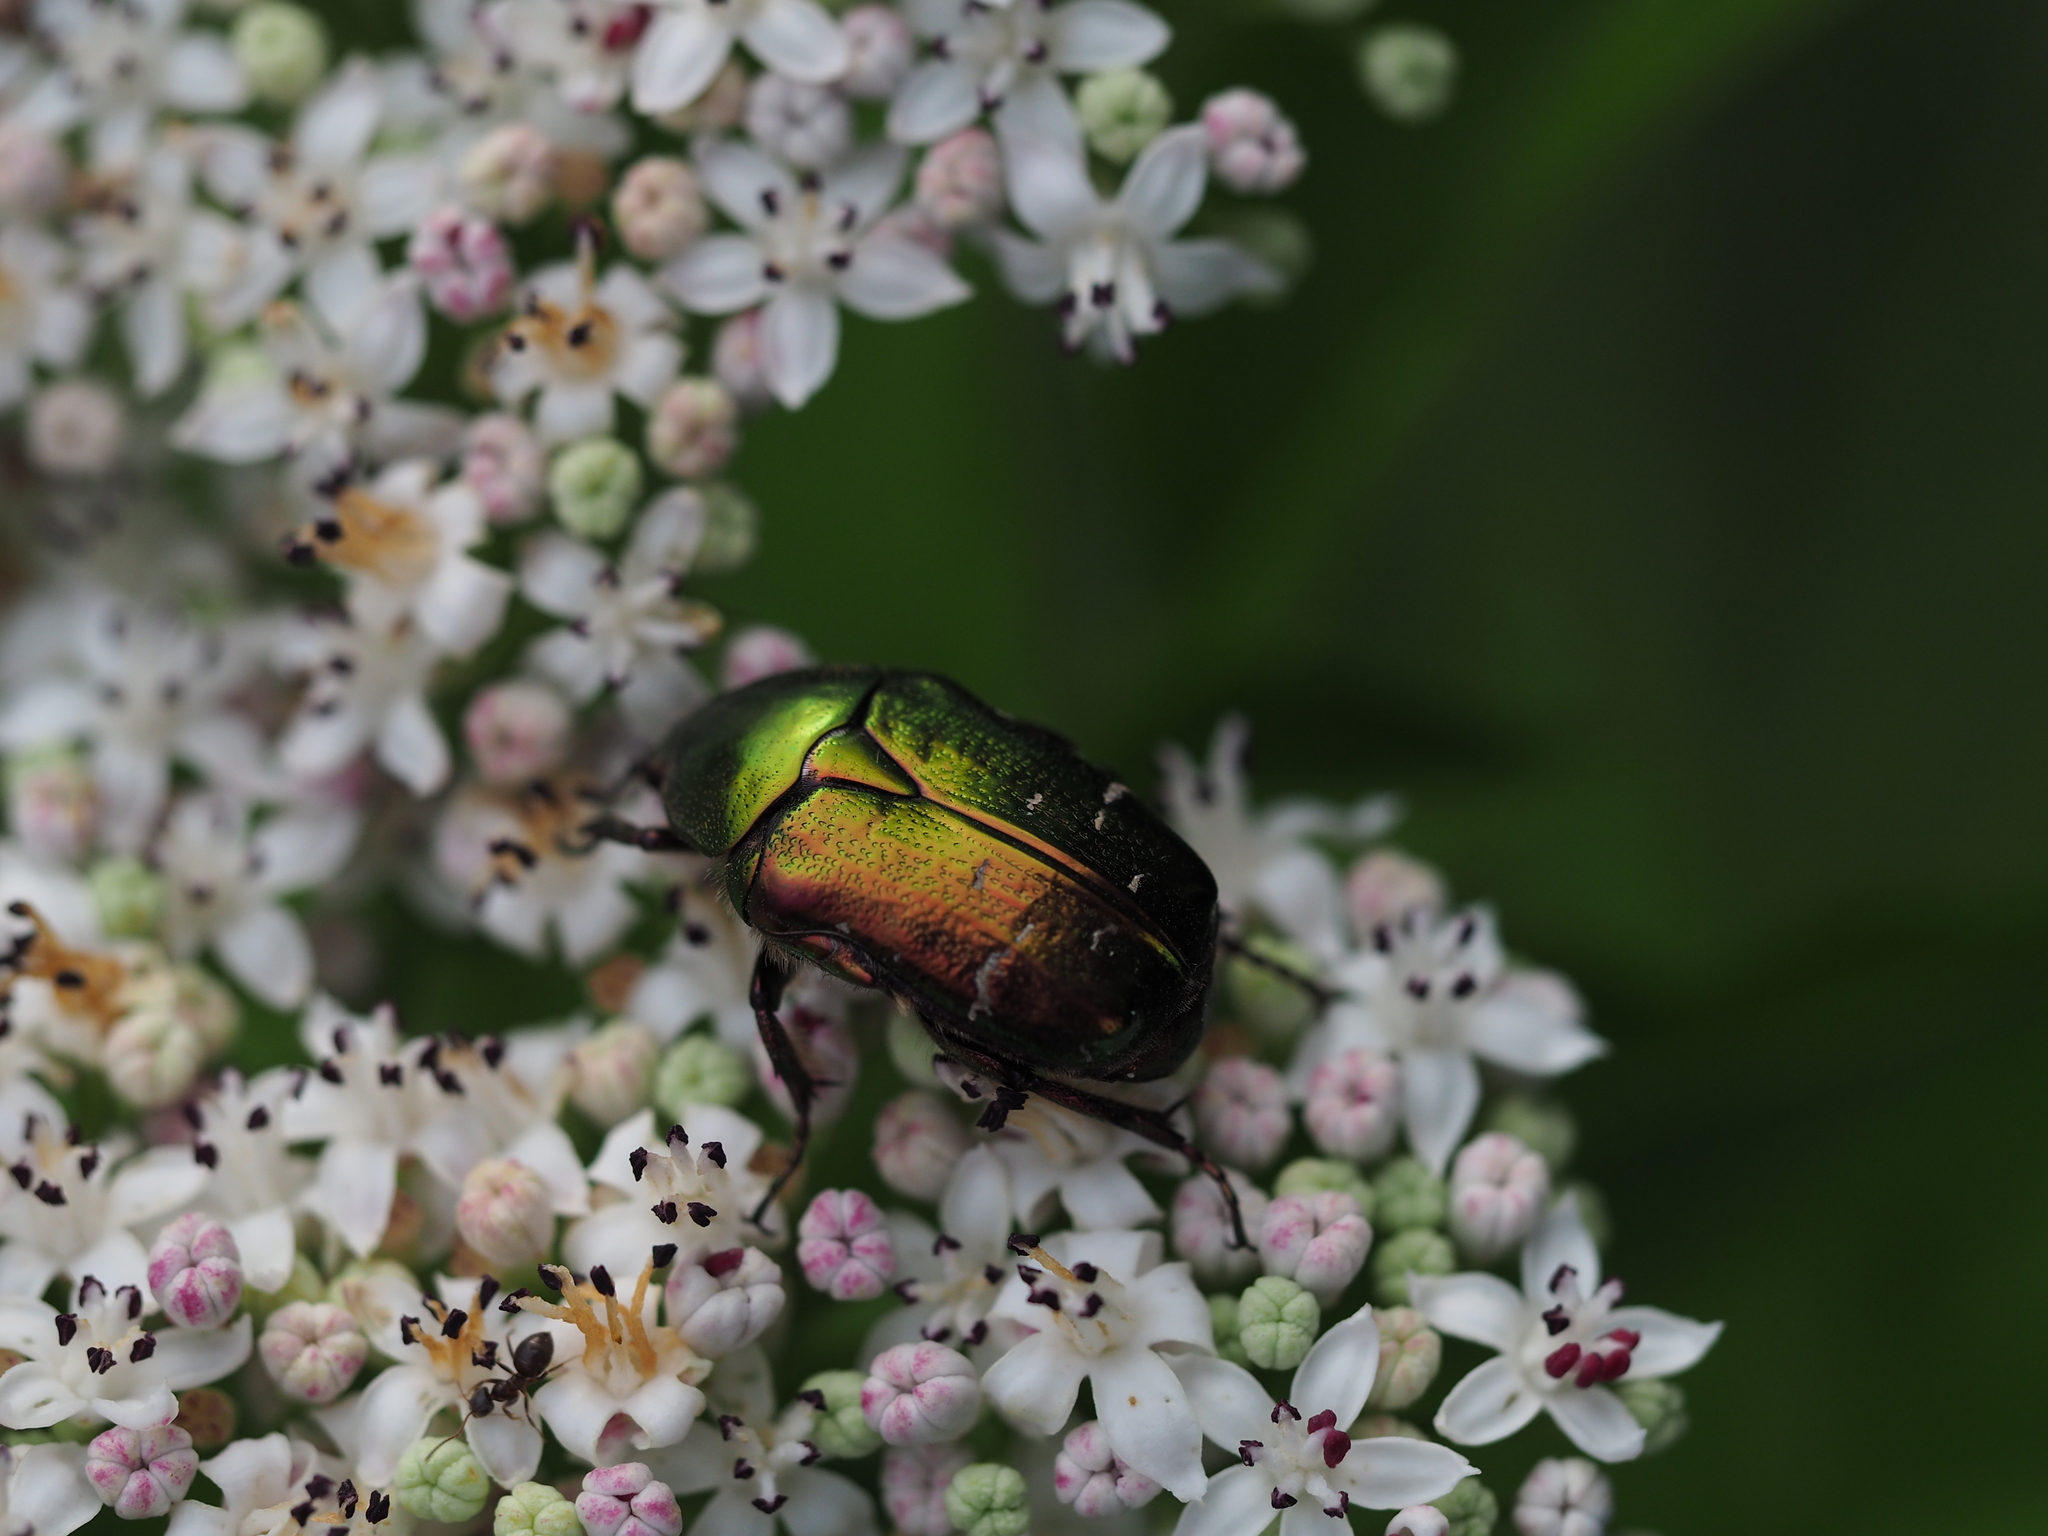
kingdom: Animalia
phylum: Arthropoda
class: Insecta
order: Coleoptera
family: Scarabaeidae
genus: Cetonia
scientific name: Cetonia aurata
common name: Rose chafer
